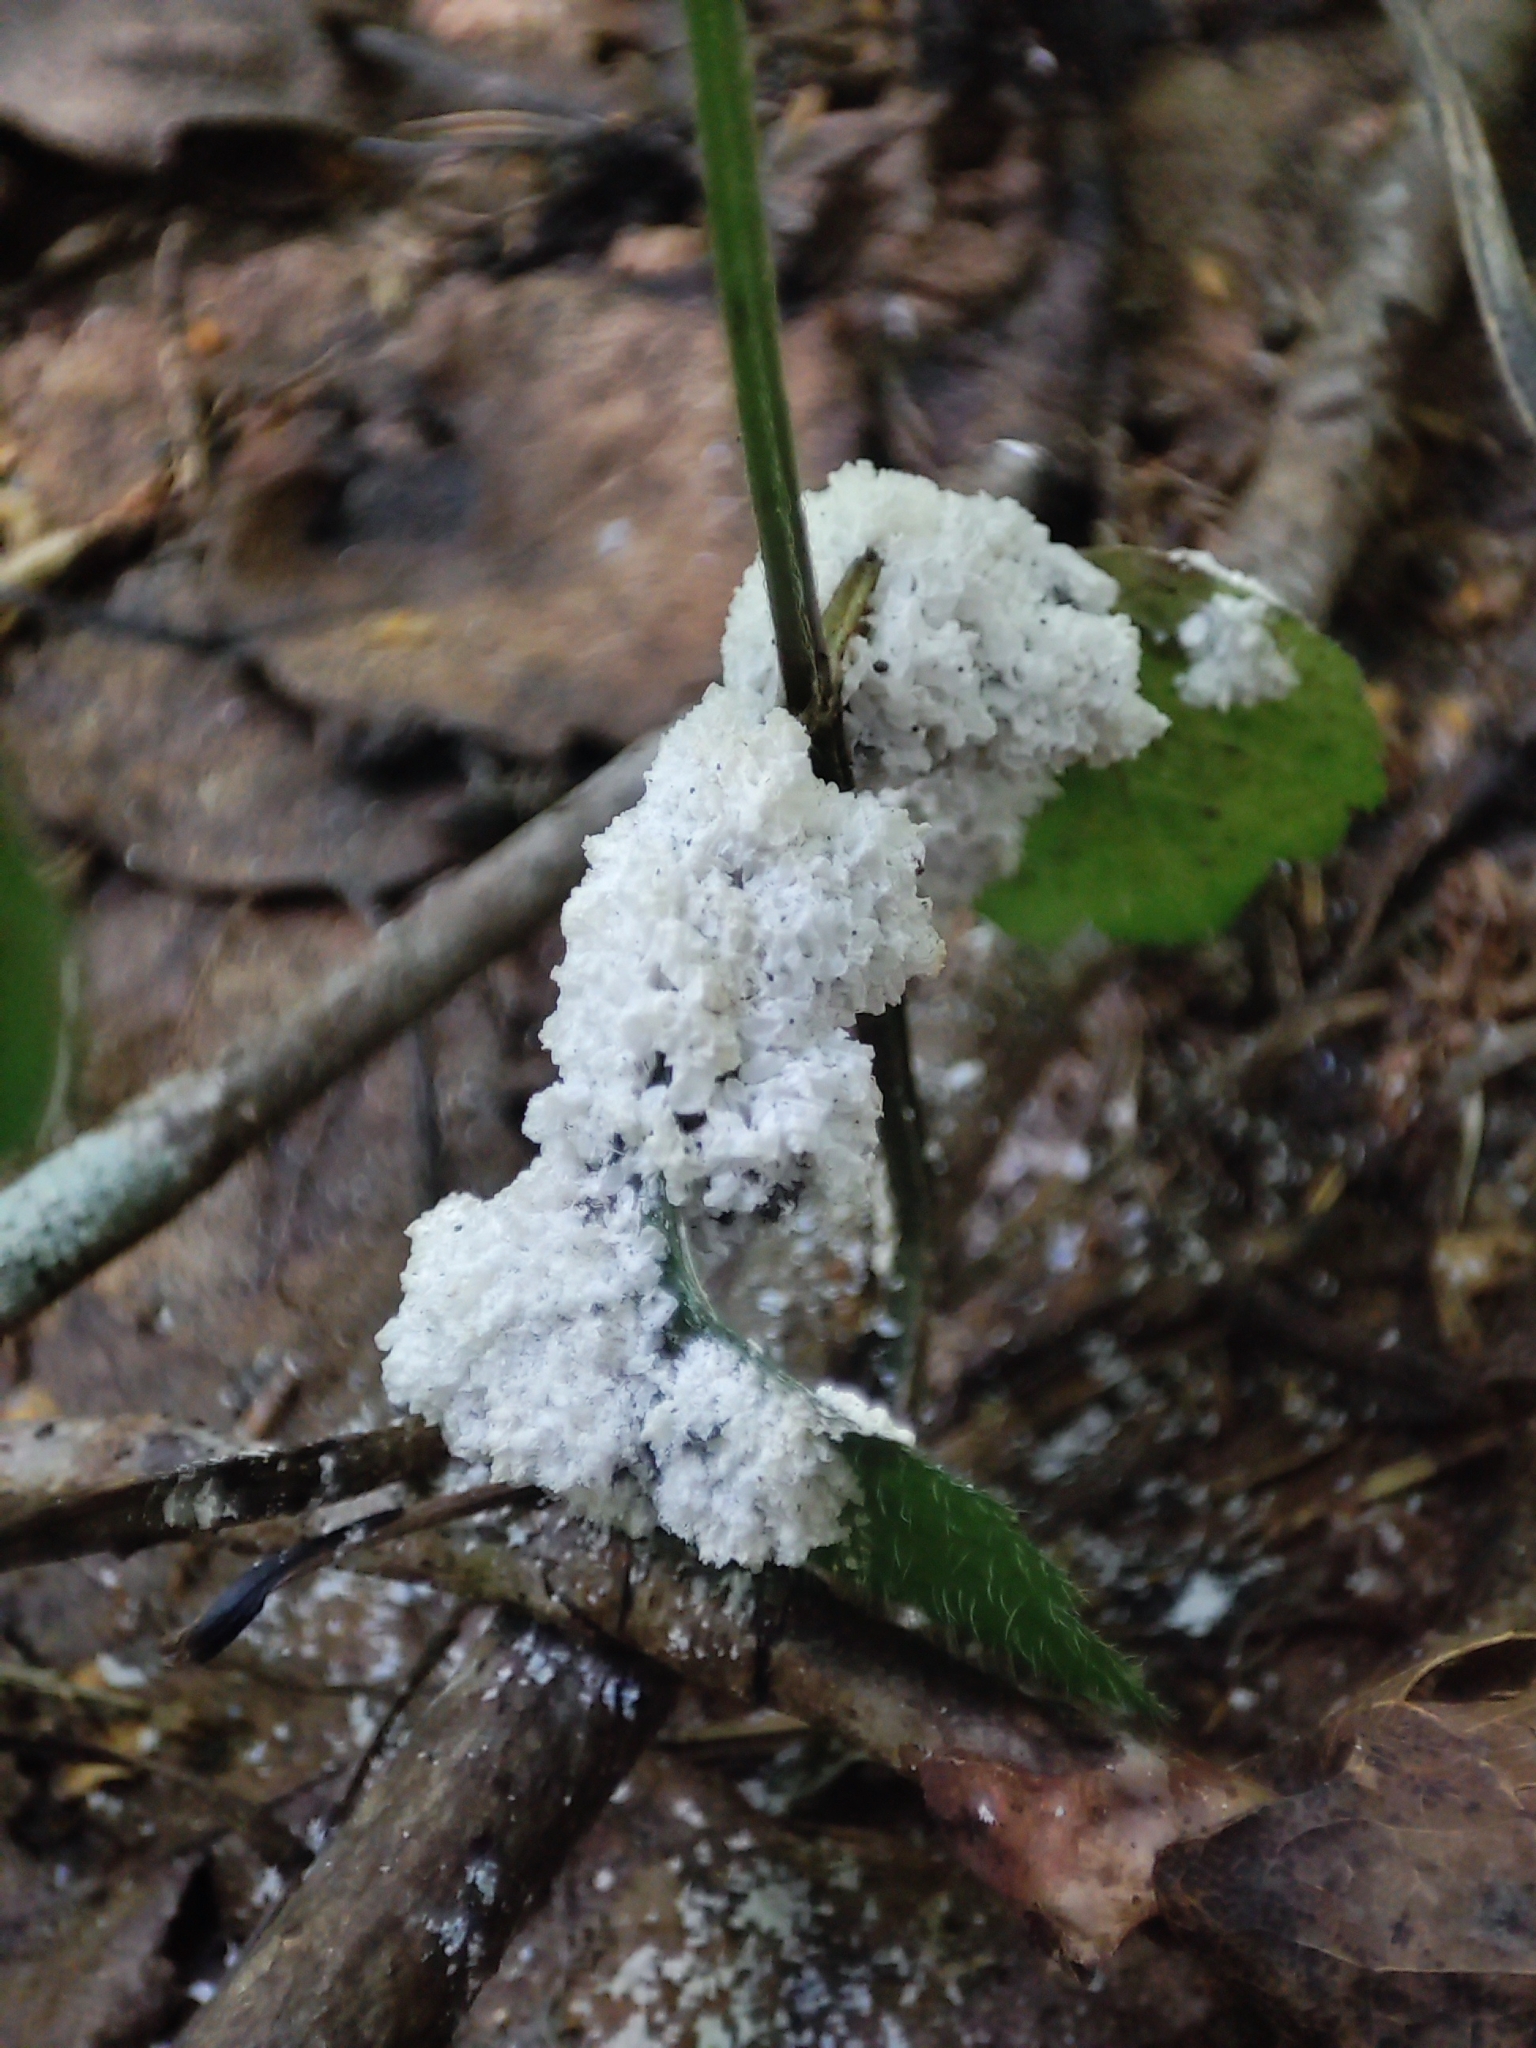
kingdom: Protozoa
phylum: Mycetozoa
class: Myxomycetes
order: Physarales
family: Physaraceae
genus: Didymium
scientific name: Didymium
